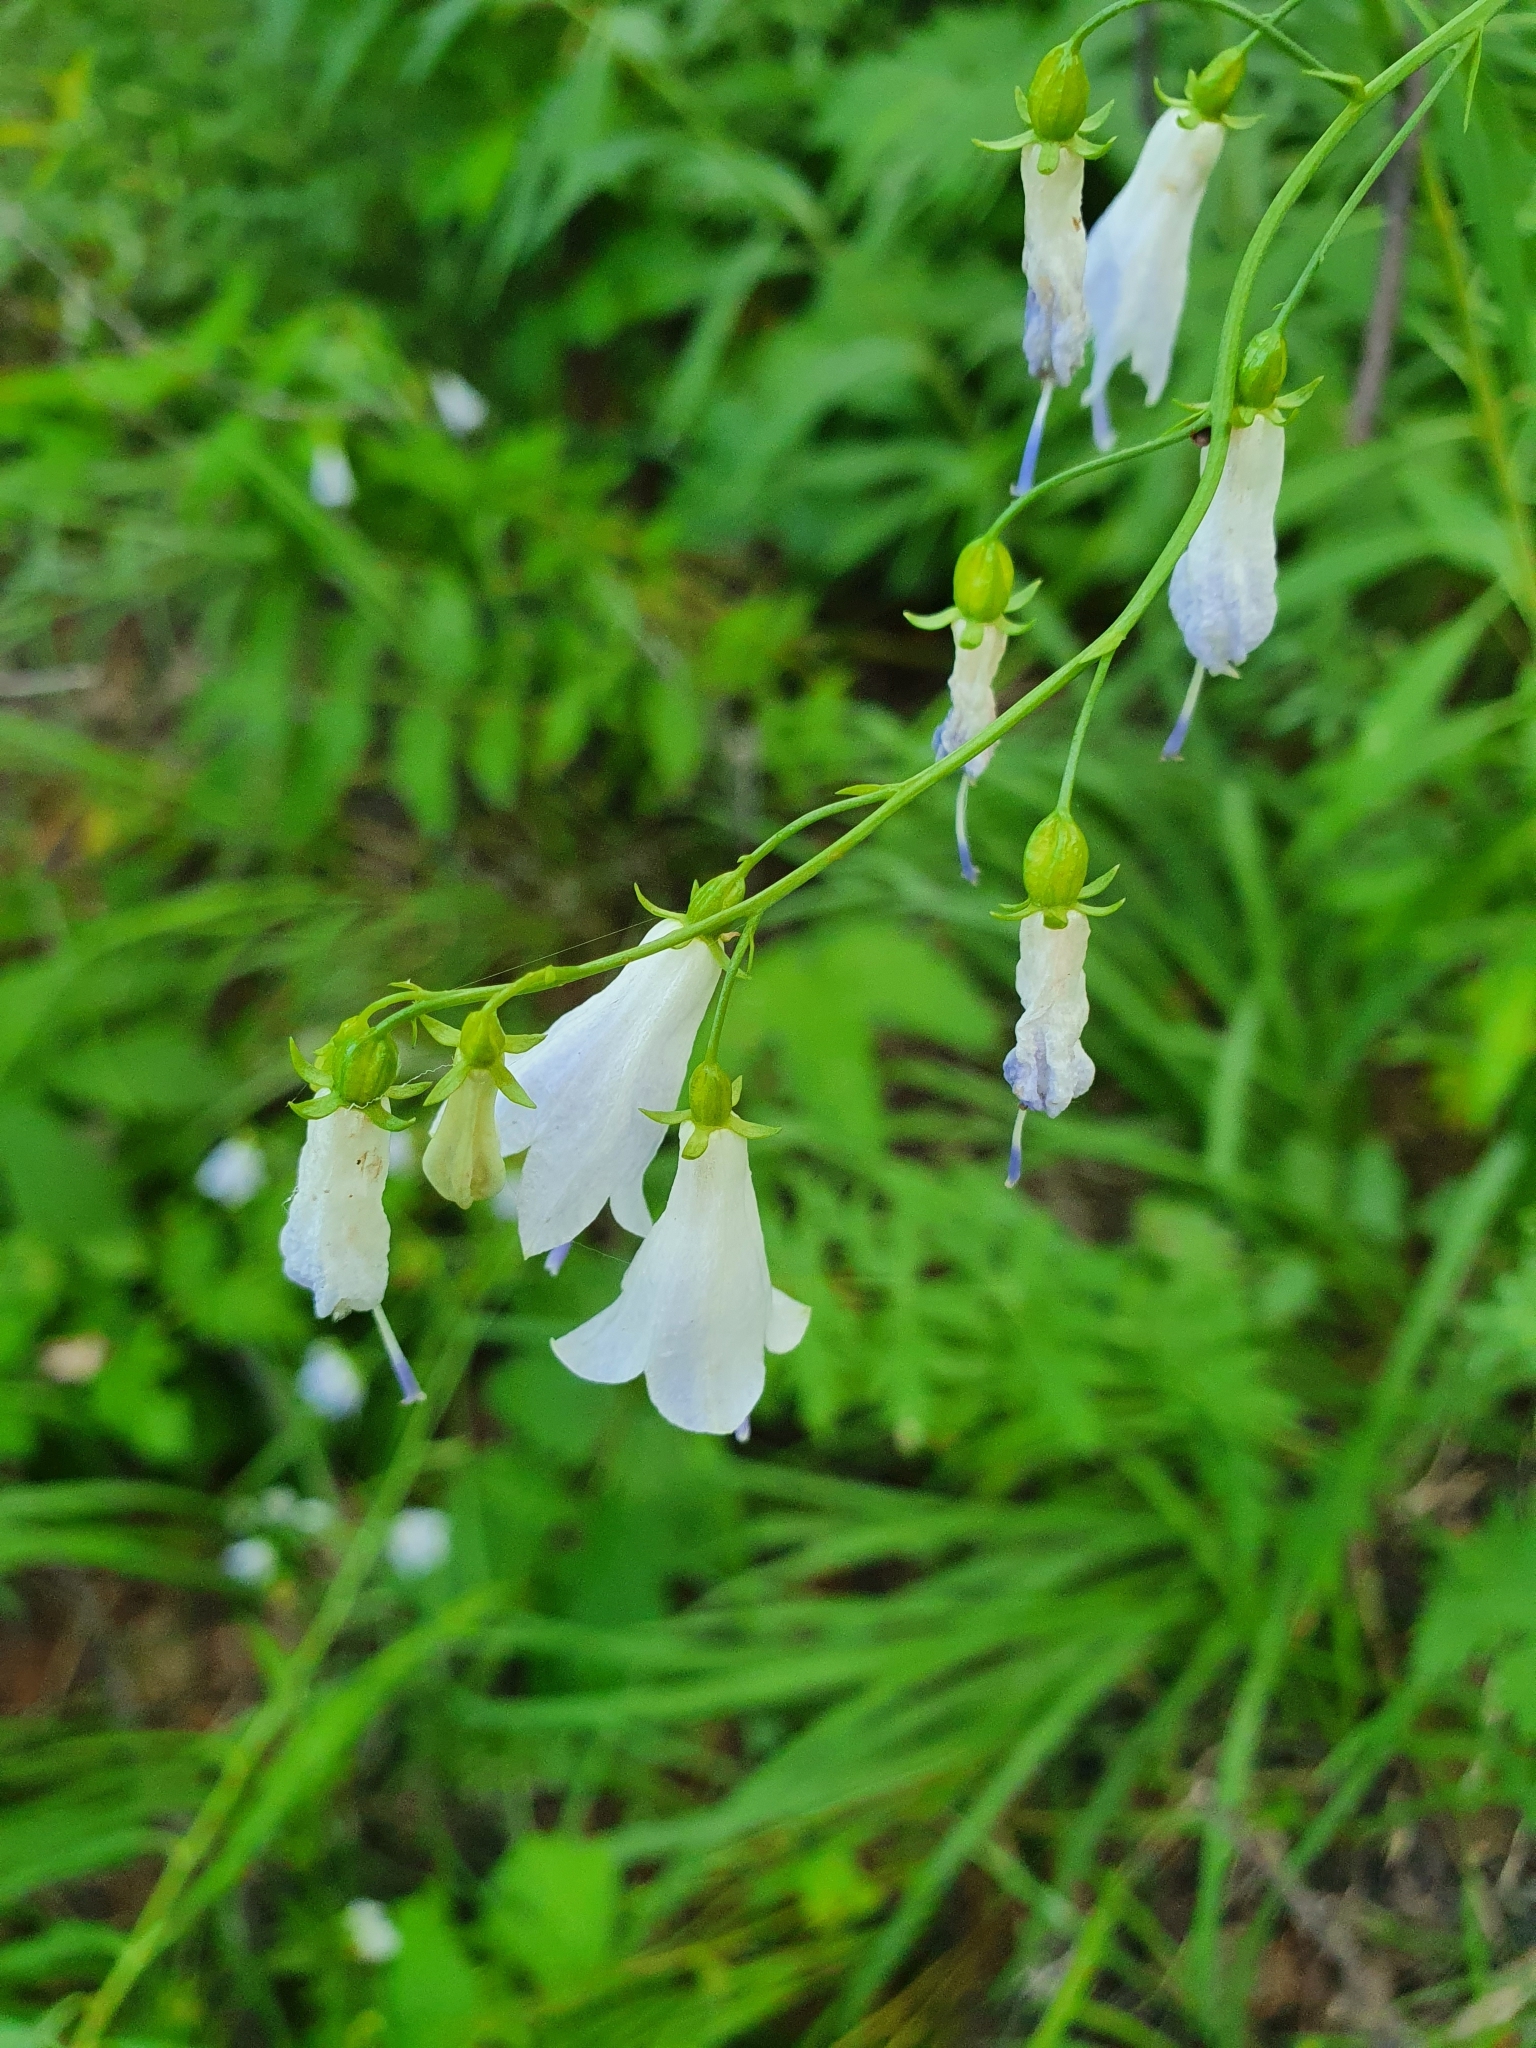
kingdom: Plantae
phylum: Tracheophyta
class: Magnoliopsida
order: Asterales
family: Campanulaceae
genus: Adenophora
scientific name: Adenophora liliifolia
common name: Lilyleaf ladybells
